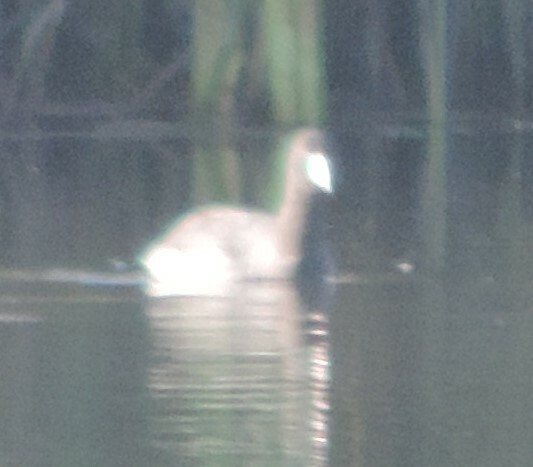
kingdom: Animalia
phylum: Chordata
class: Aves
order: Gruiformes
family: Rallidae
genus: Fulica
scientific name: Fulica americana
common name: American coot
